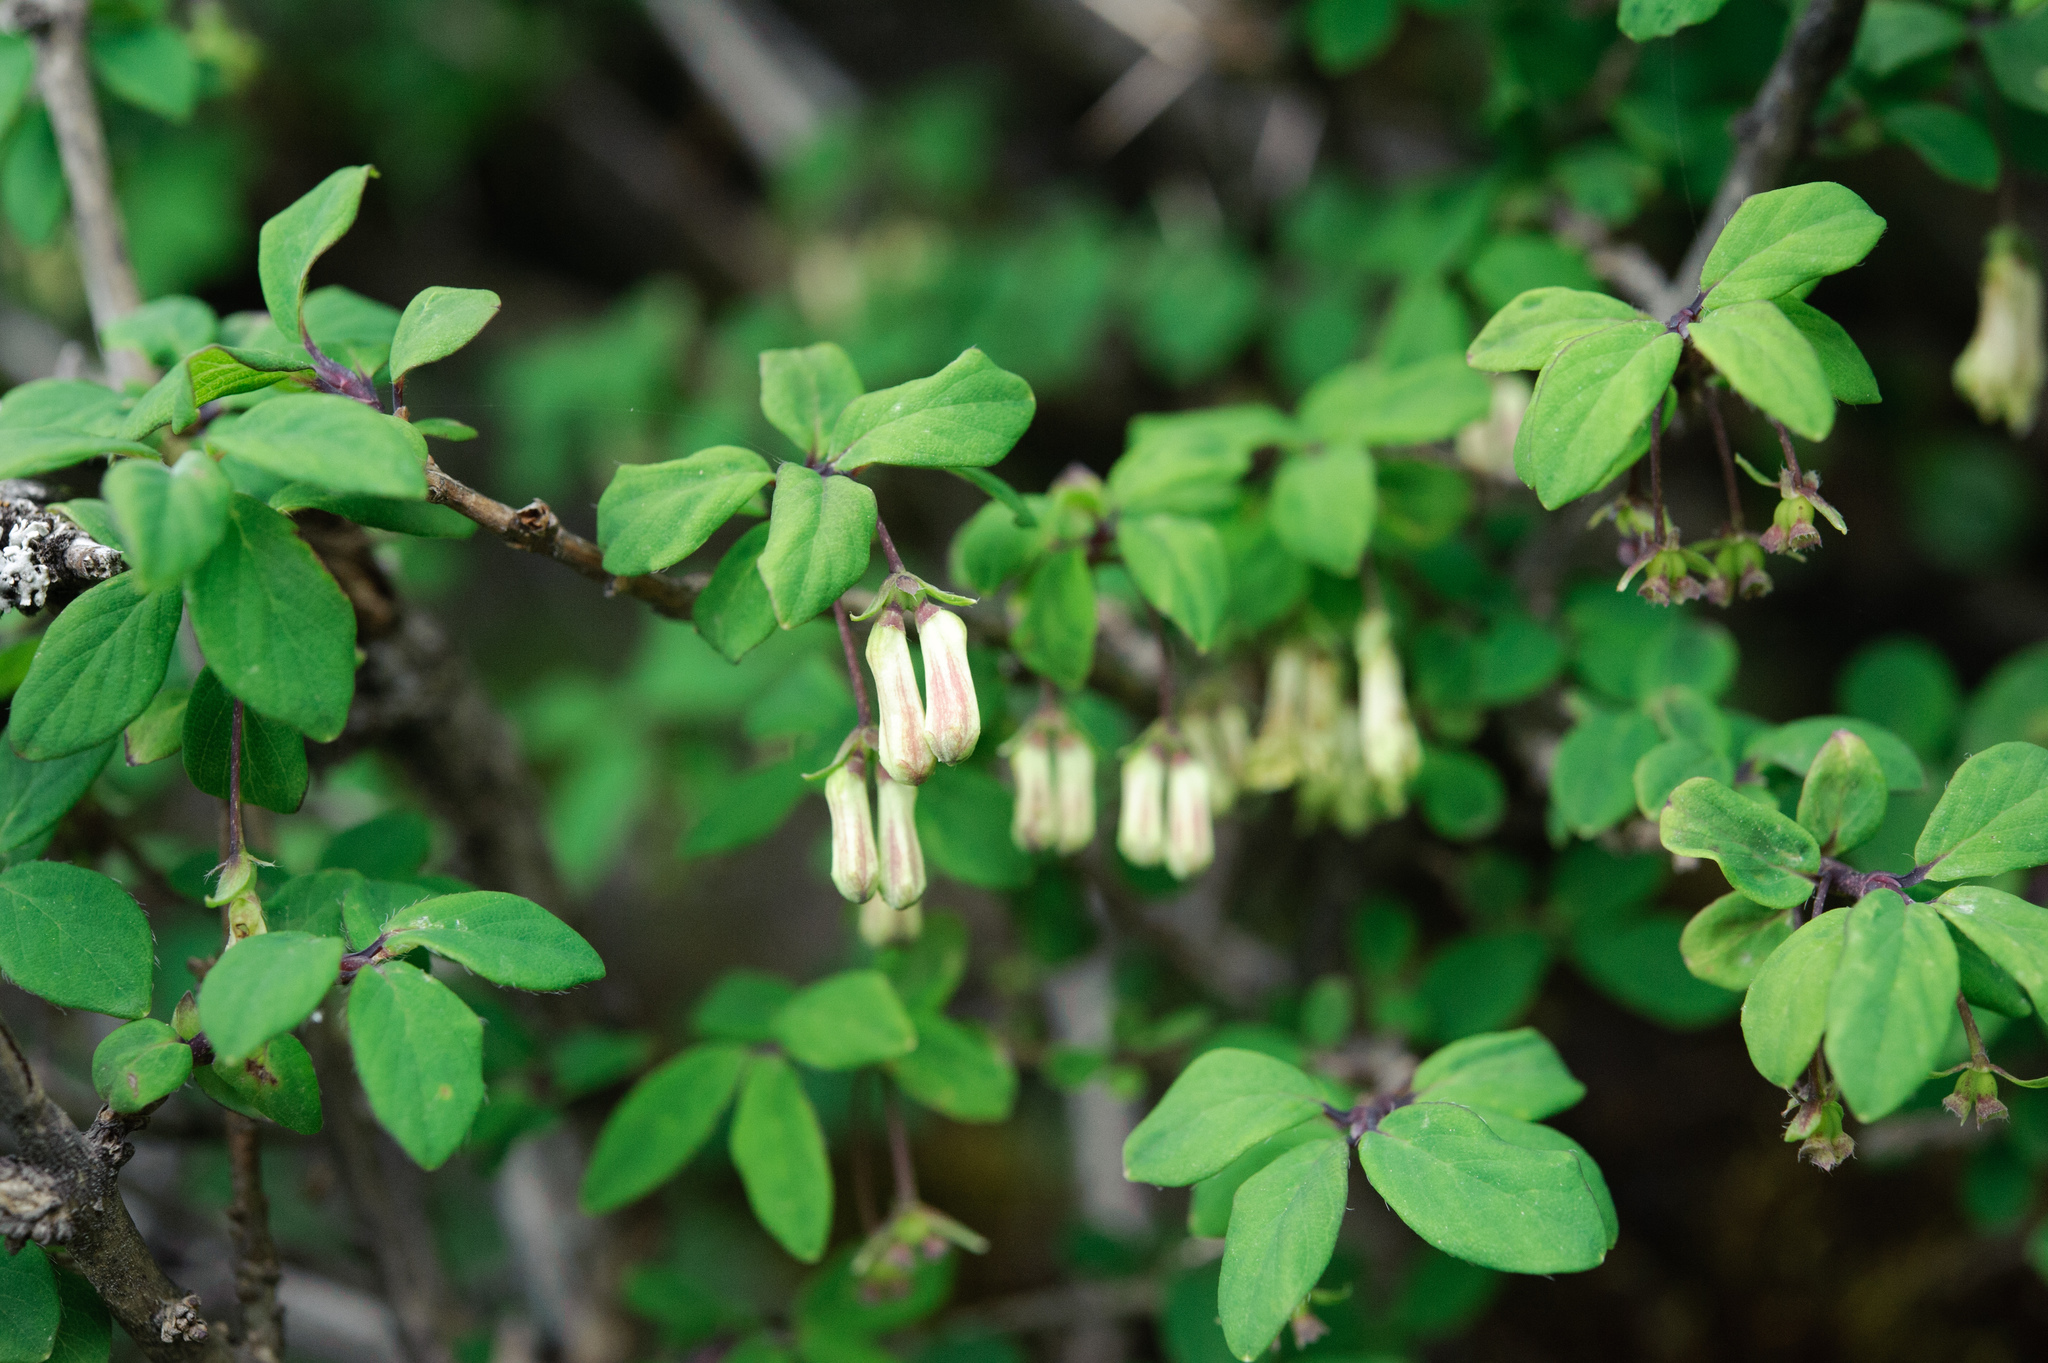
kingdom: Plantae
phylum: Tracheophyta
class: Magnoliopsida
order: Dipsacales
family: Caprifoliaceae
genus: Lonicera
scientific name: Lonicera kawakamii
